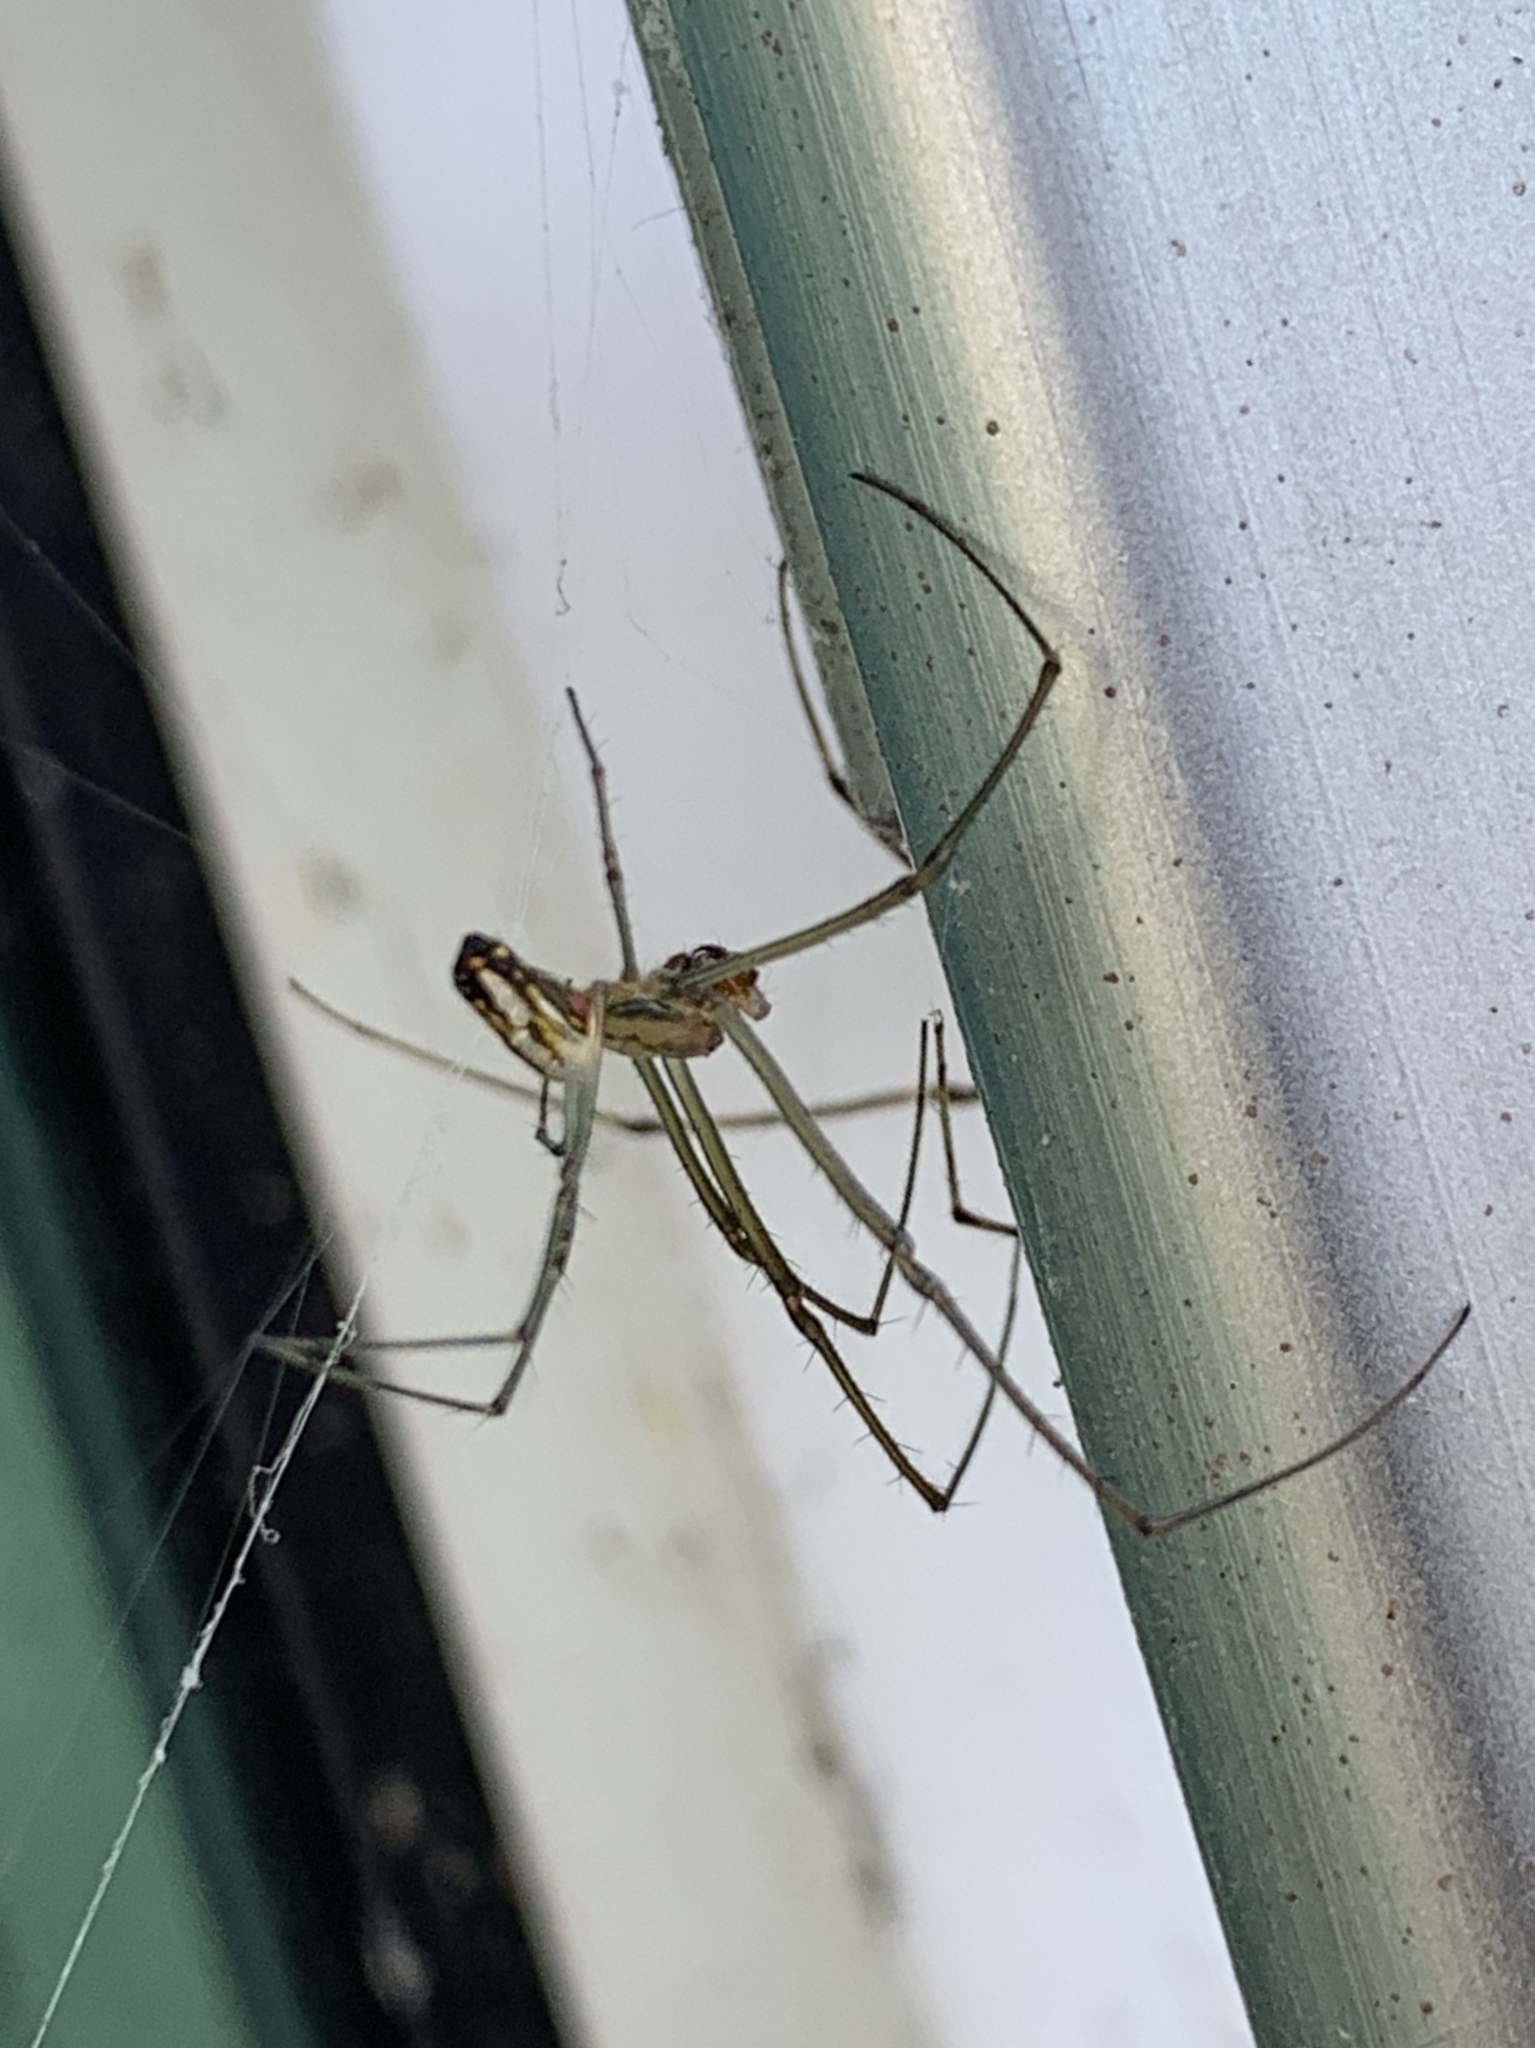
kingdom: Animalia
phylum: Arthropoda
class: Arachnida
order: Araneae
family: Tetragnathidae
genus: Leucauge
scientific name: Leucauge argyra
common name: Longjawed orb weavers
